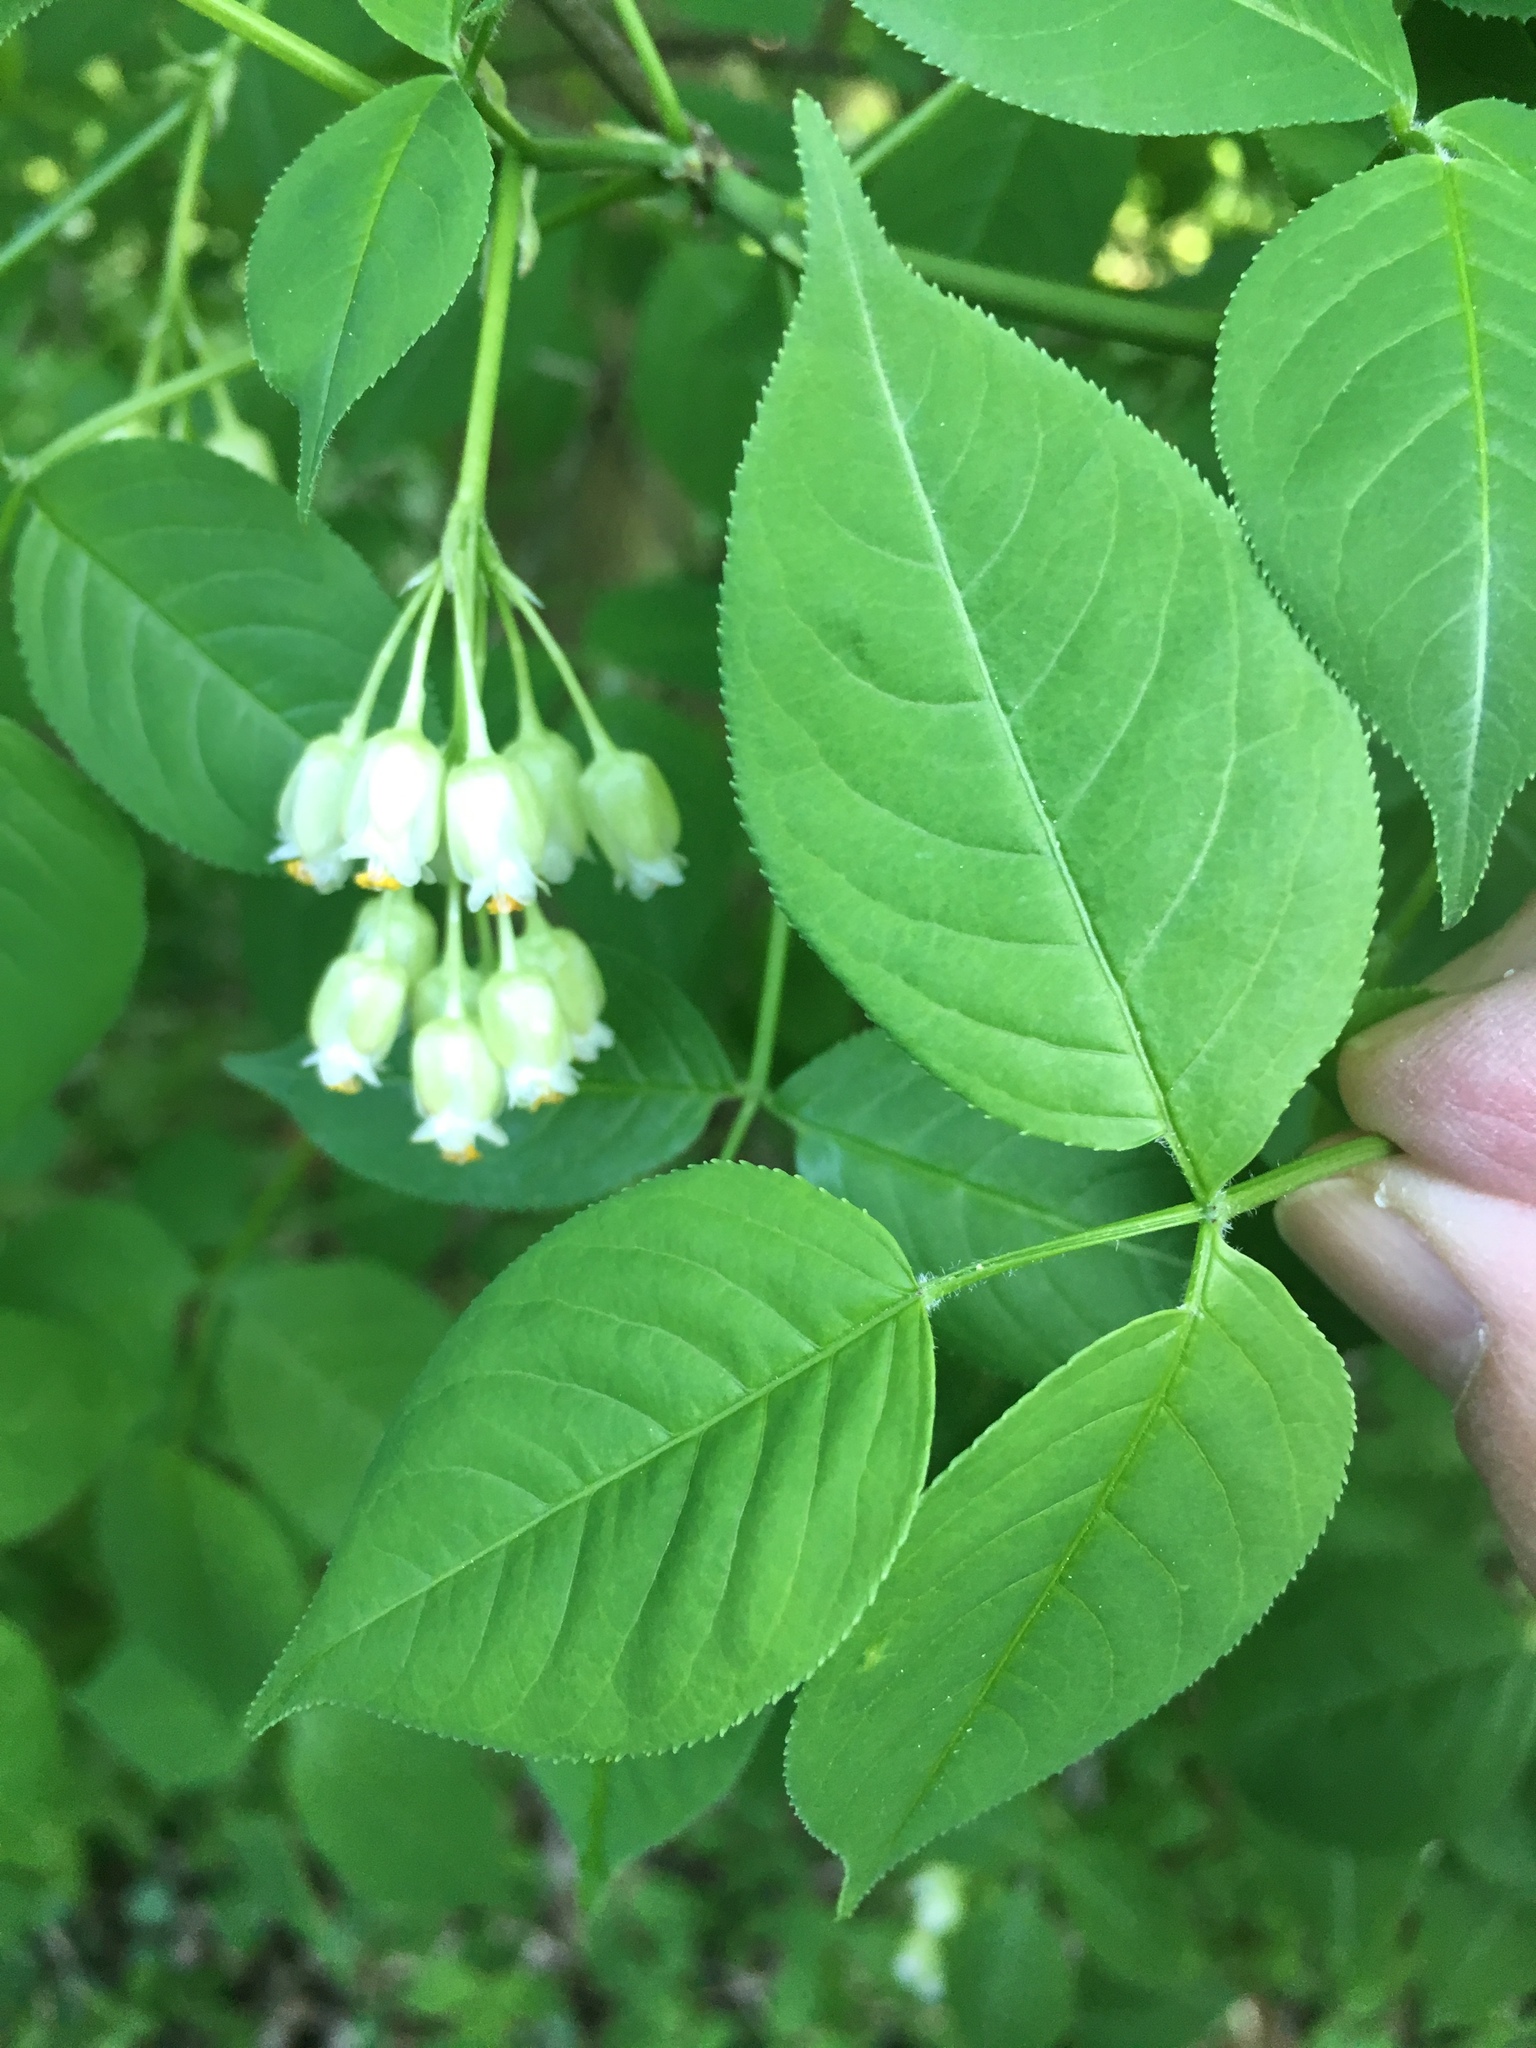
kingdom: Plantae
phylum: Tracheophyta
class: Magnoliopsida
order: Crossosomatales
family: Staphyleaceae
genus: Staphylea
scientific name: Staphylea trifolia
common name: American bladdernut
